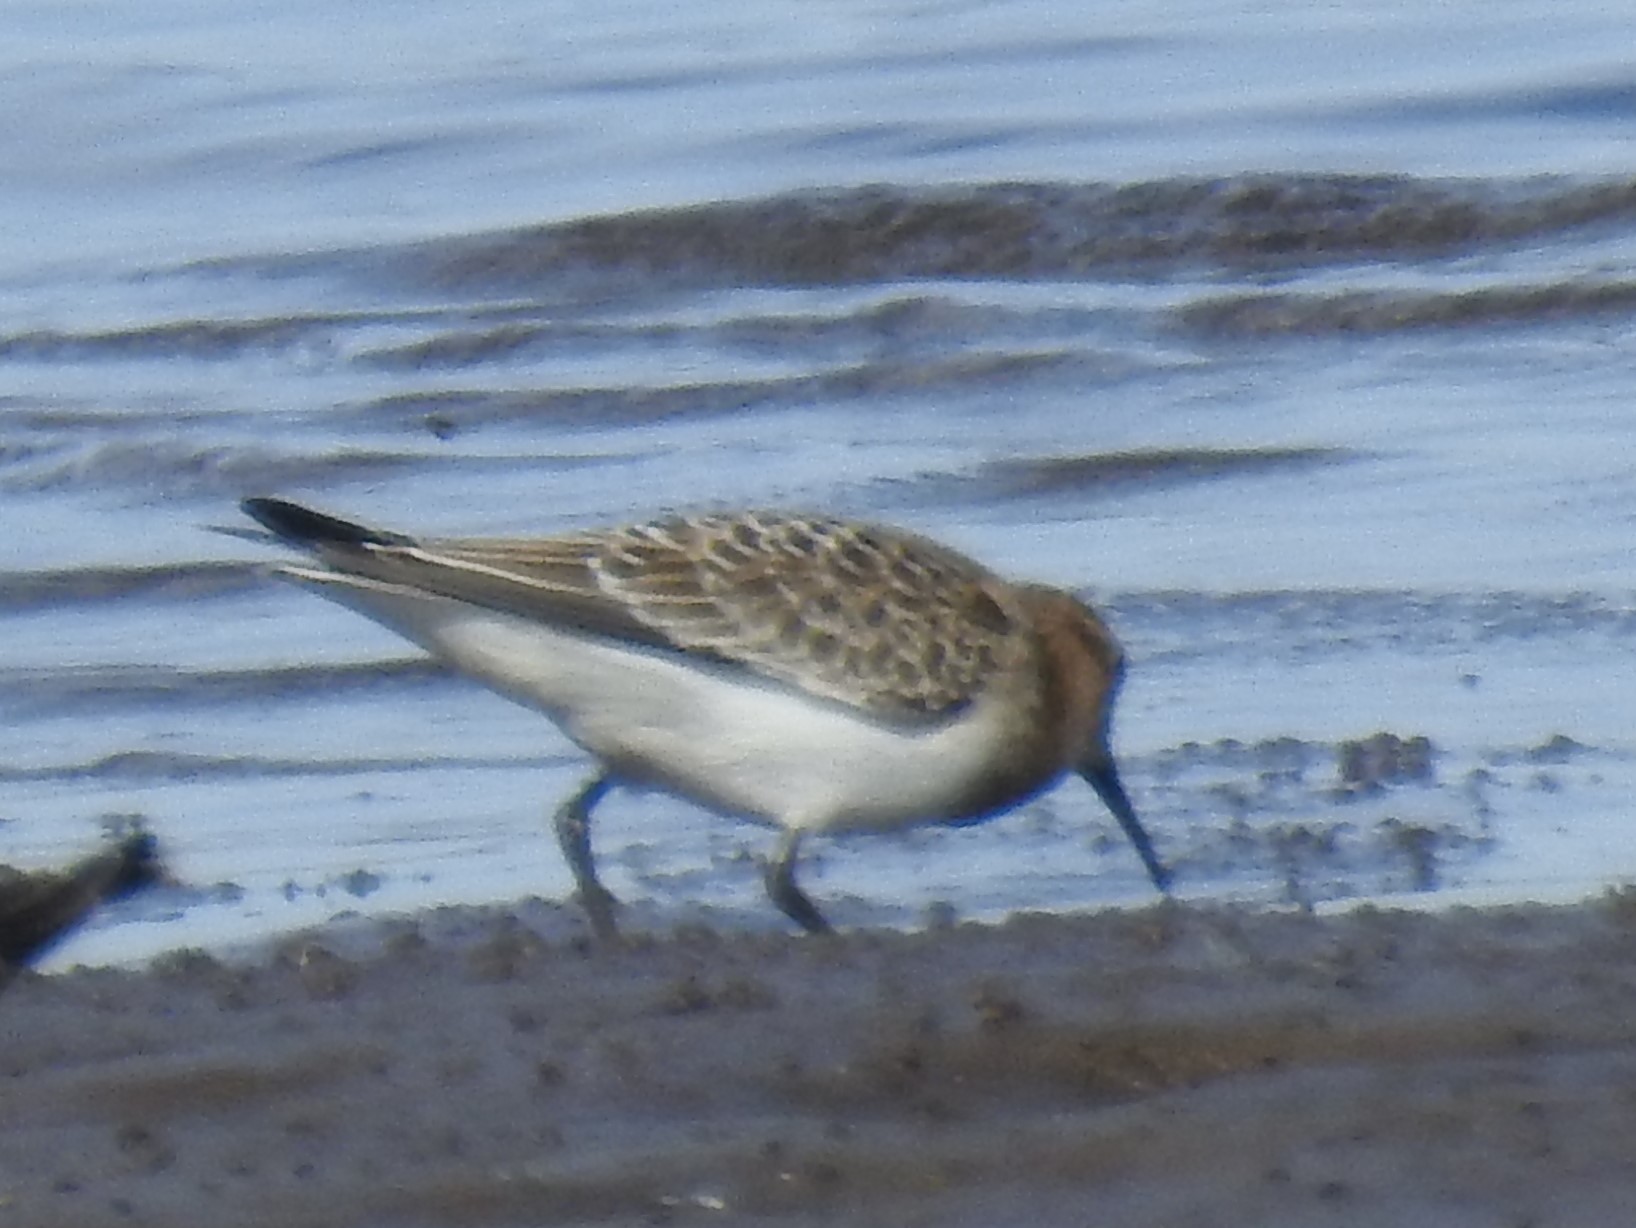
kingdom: Animalia
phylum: Chordata
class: Aves
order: Charadriiformes
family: Scolopacidae
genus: Calidris
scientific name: Calidris bairdii
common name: Baird's sandpiper
